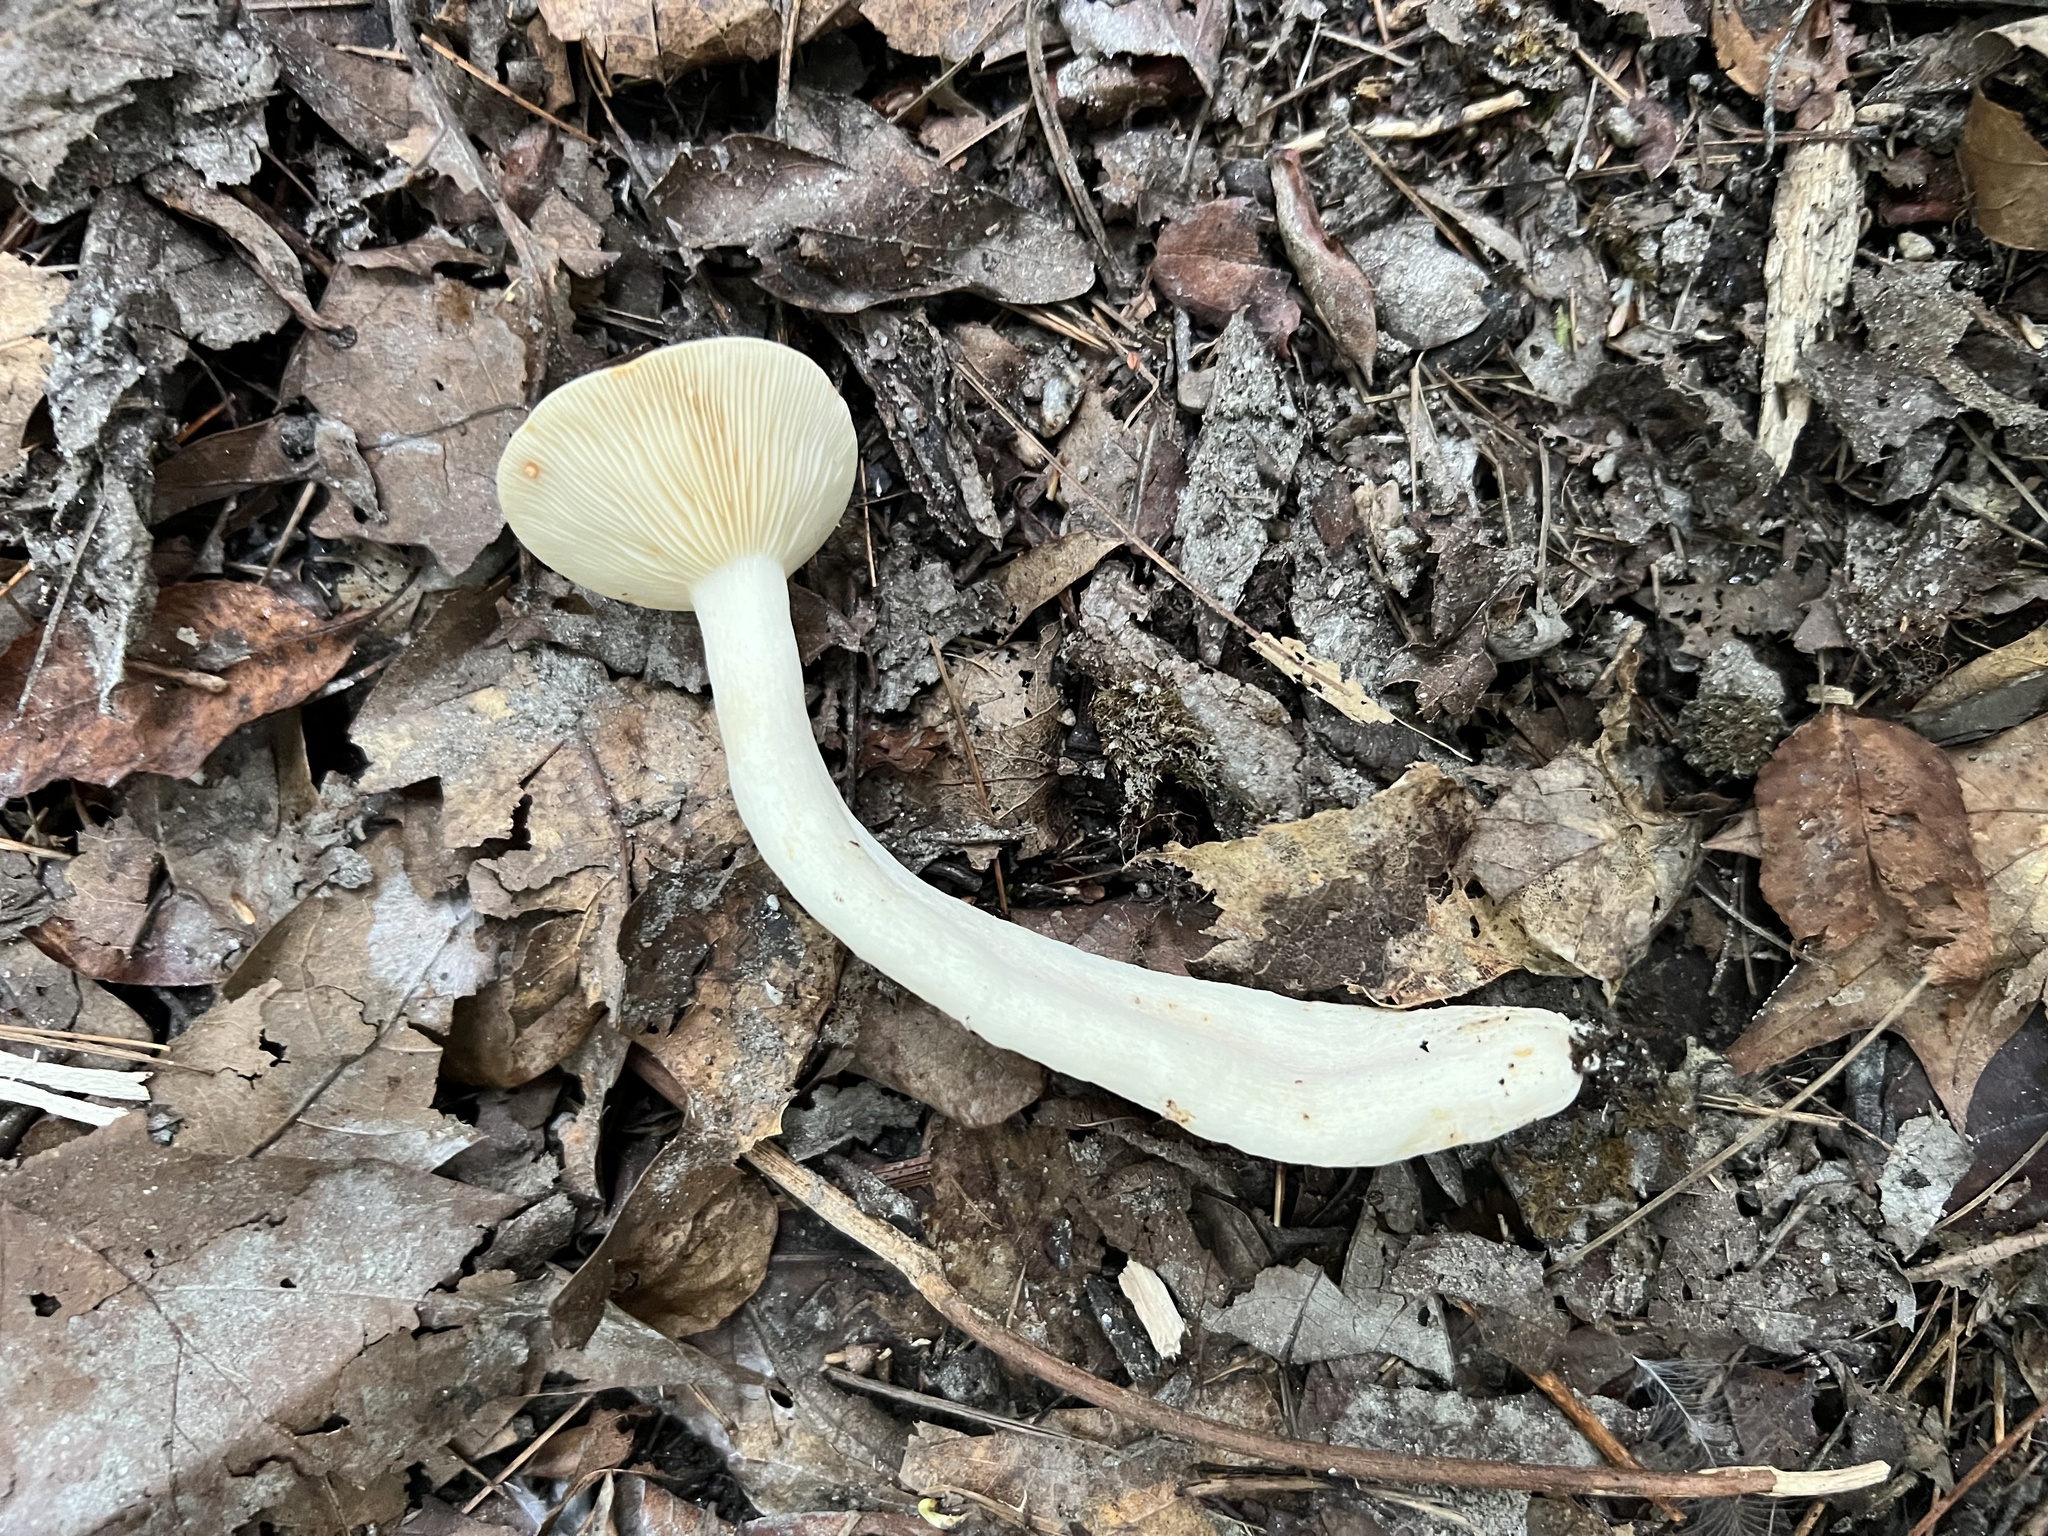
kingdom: Fungi
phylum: Basidiomycota
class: Agaricomycetes
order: Russulales
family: Russulaceae
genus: Lactarius
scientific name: Lactarius subvernalis
